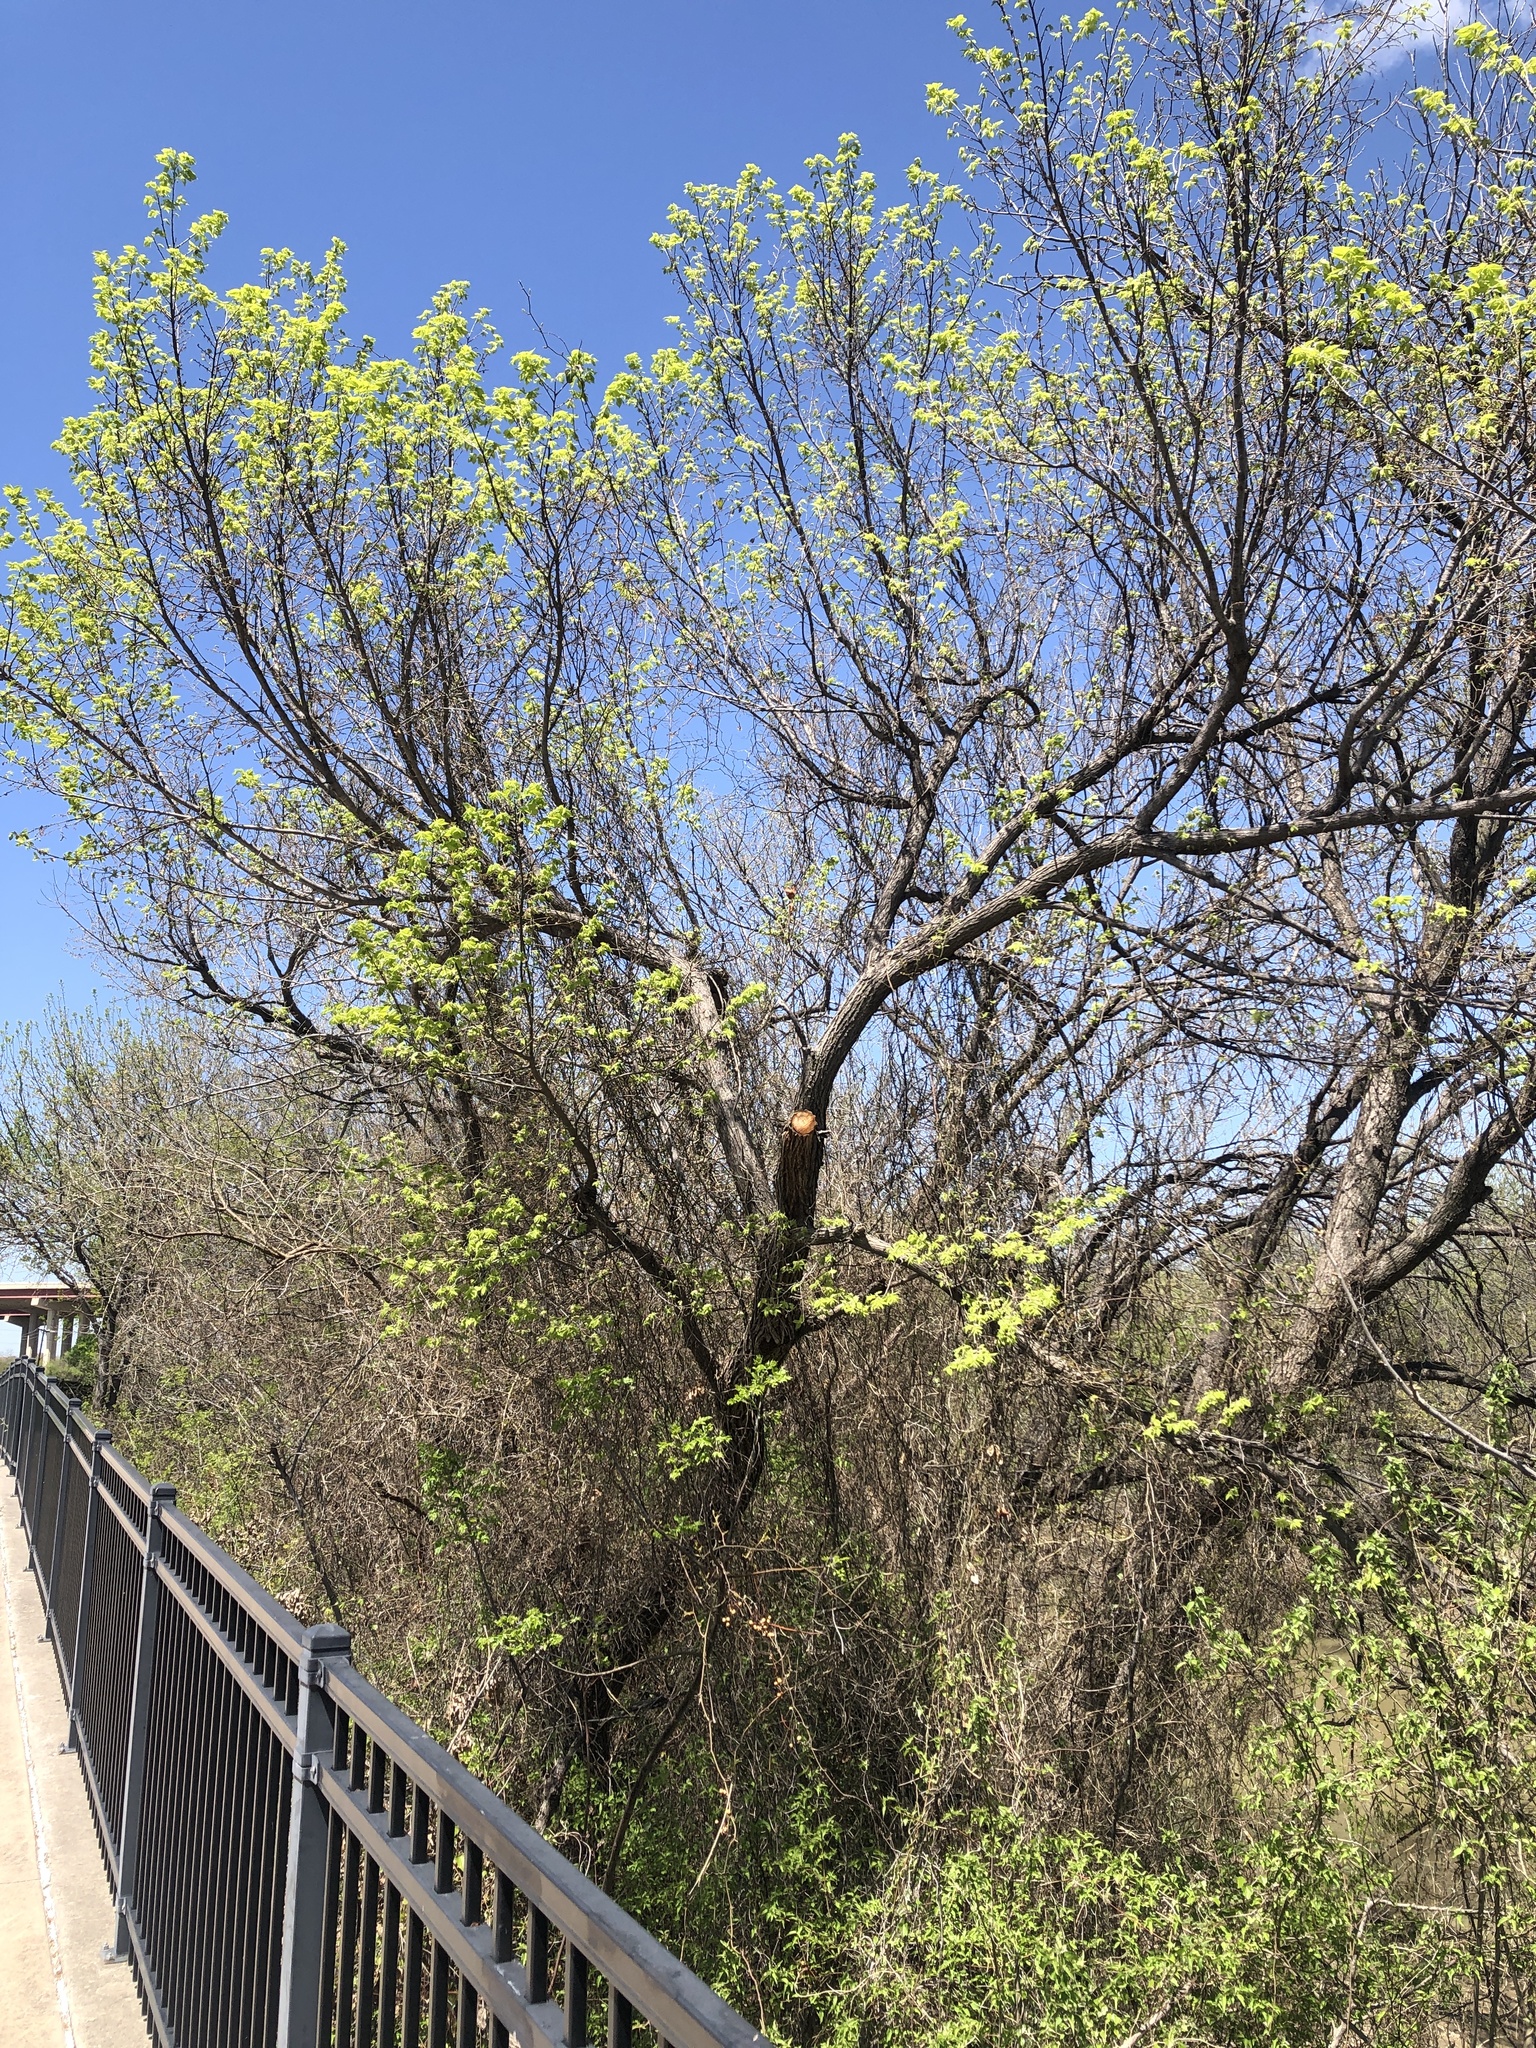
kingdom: Plantae
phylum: Tracheophyta
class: Magnoliopsida
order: Rosales
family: Ulmaceae
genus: Ulmus
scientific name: Ulmus americana
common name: American elm
